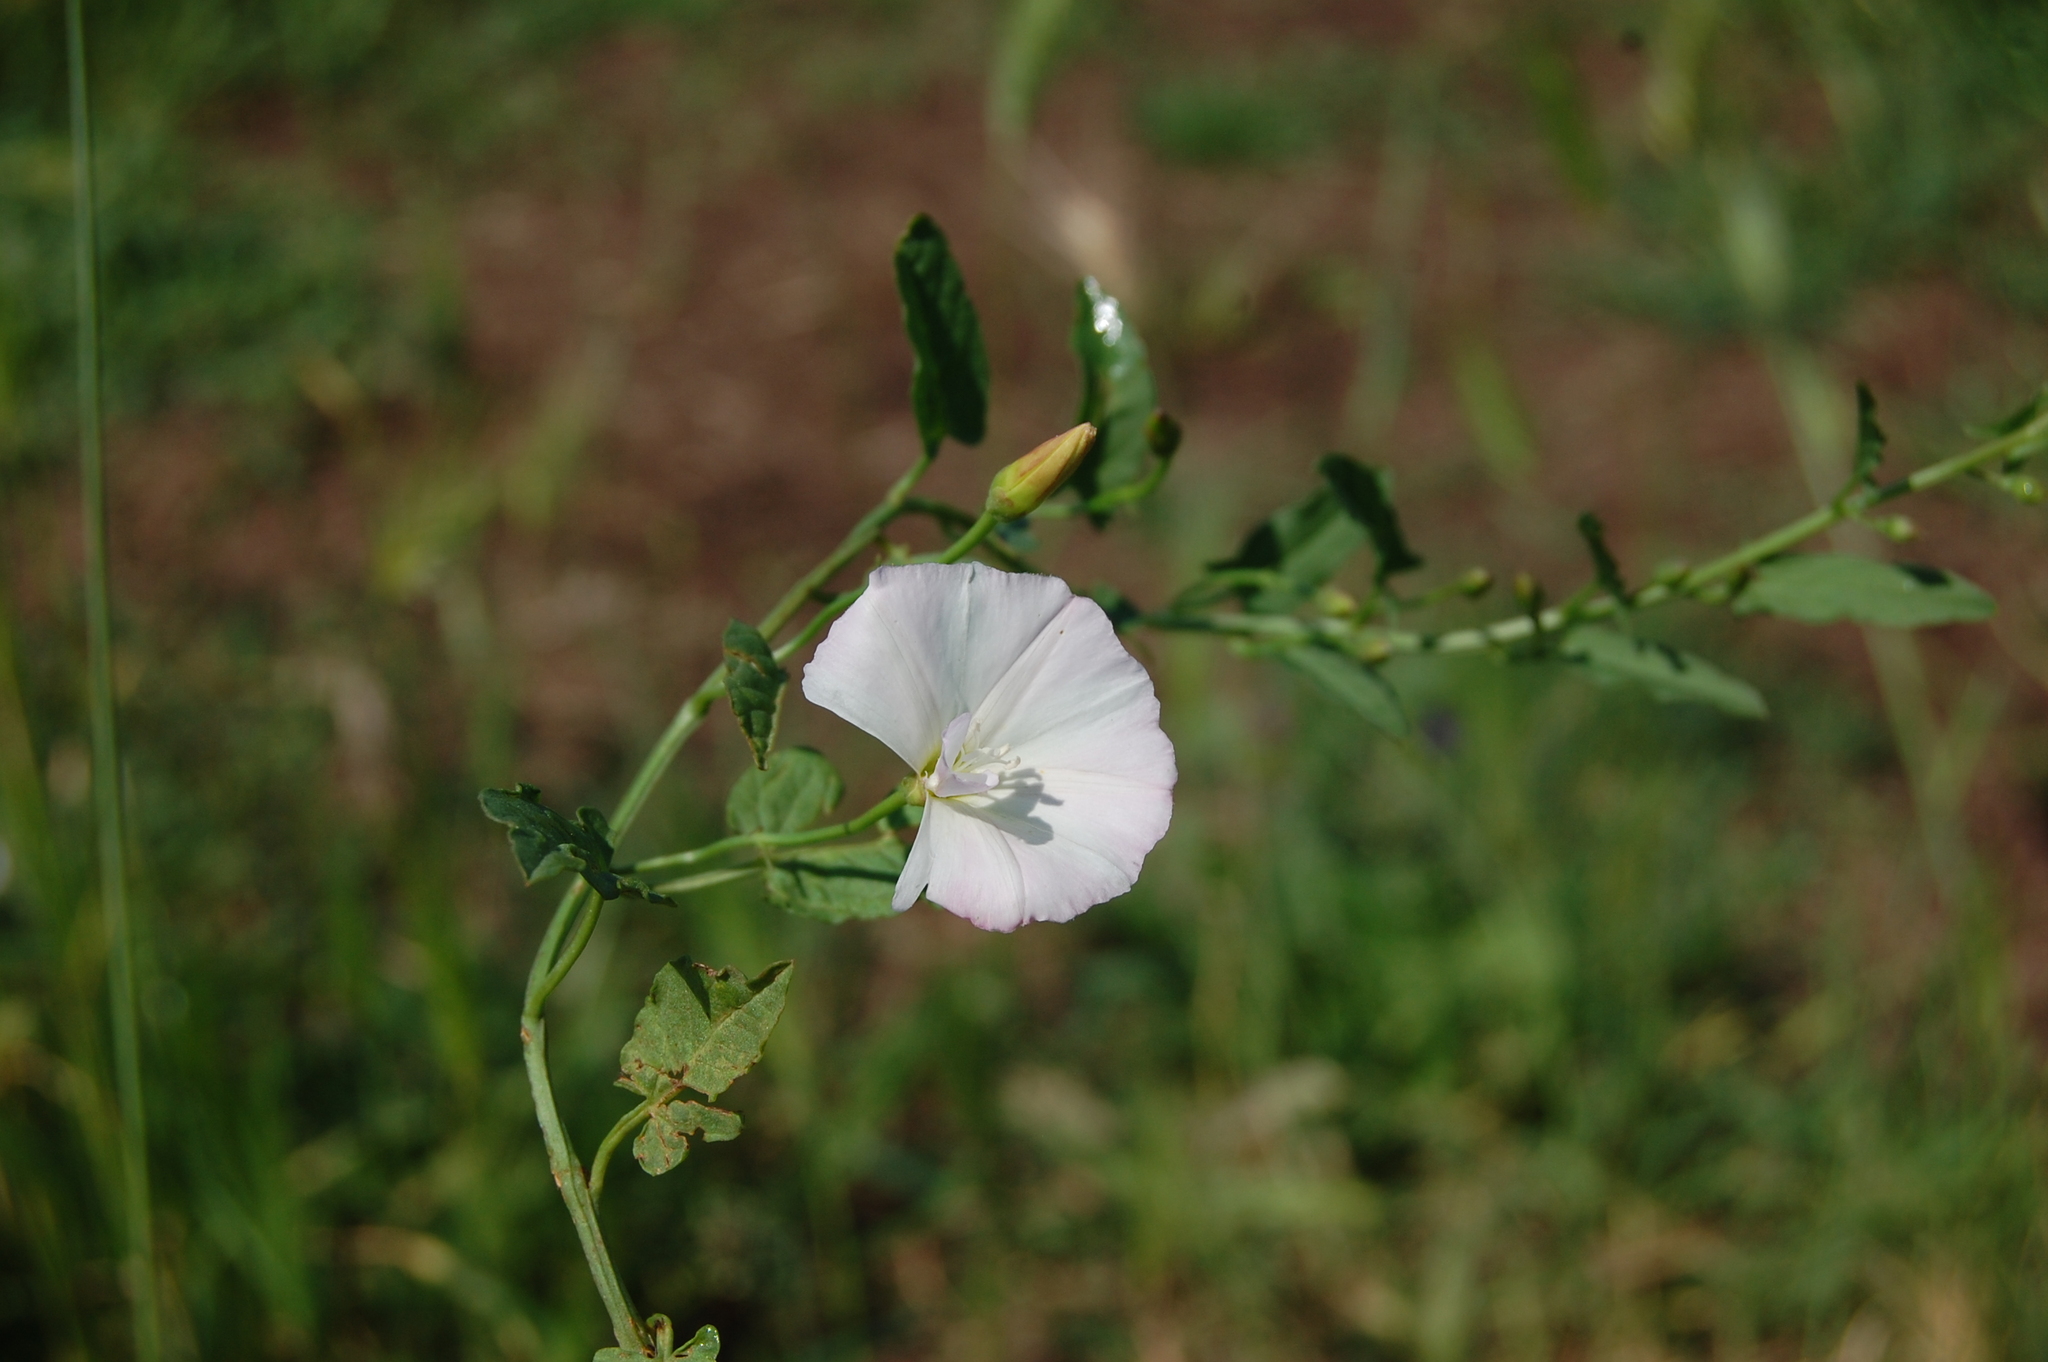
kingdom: Plantae
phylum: Tracheophyta
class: Magnoliopsida
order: Solanales
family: Convolvulaceae
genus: Convolvulus
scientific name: Convolvulus arvensis
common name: Field bindweed
